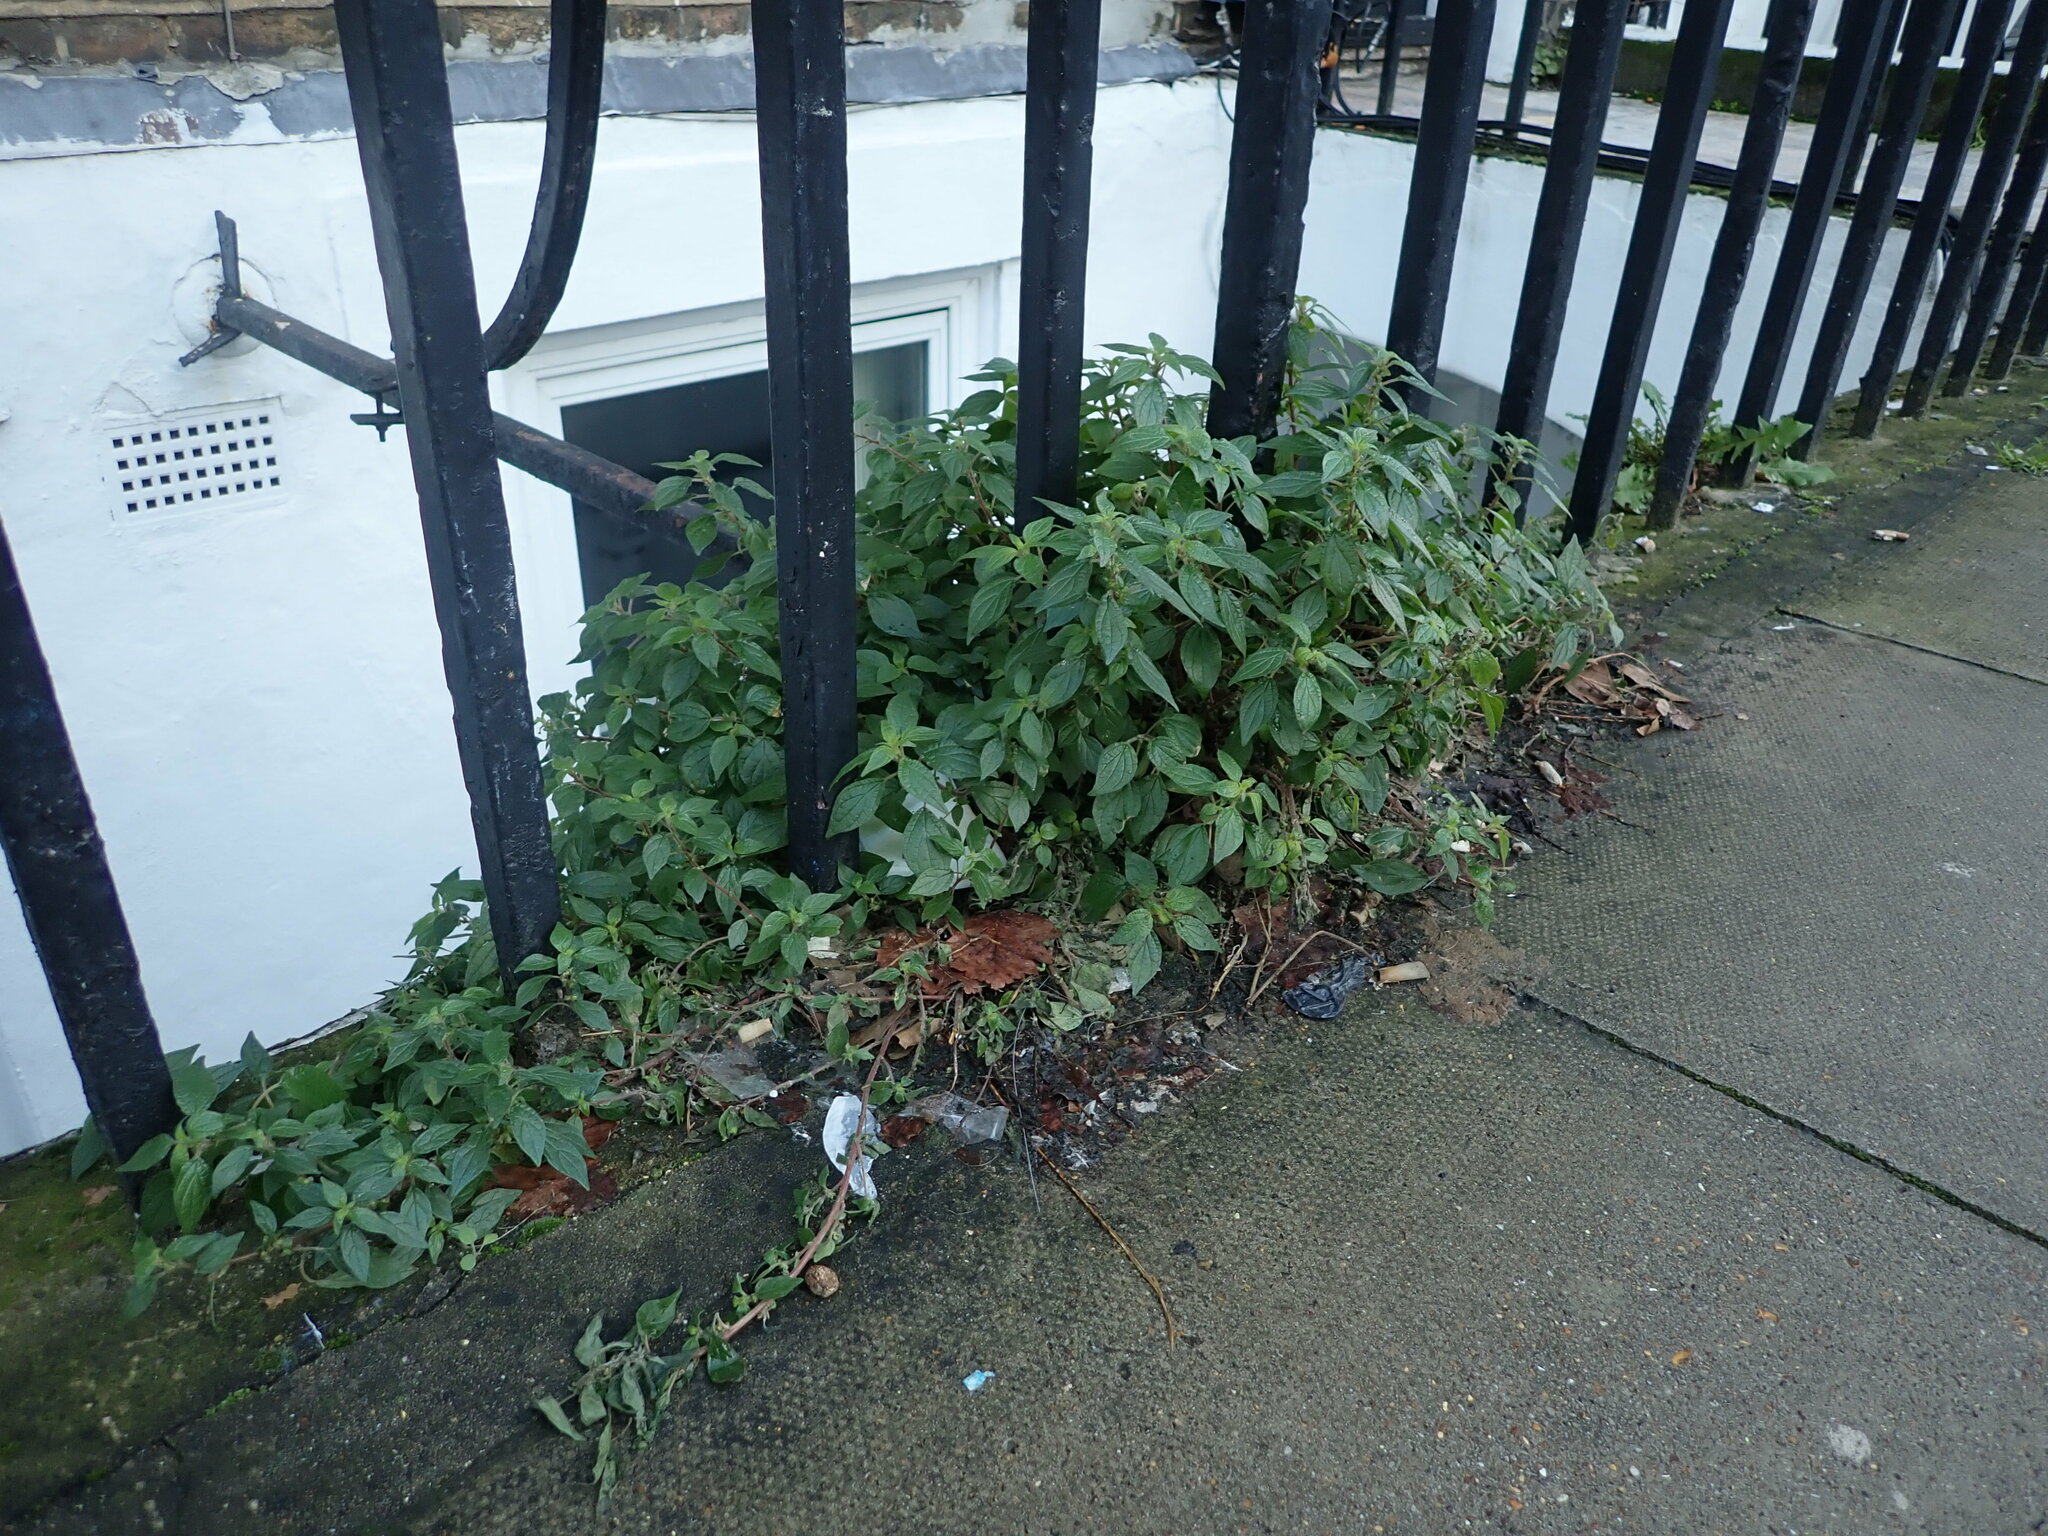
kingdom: Plantae
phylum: Tracheophyta
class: Magnoliopsida
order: Rosales
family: Urticaceae
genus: Parietaria
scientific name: Parietaria judaica
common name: Pellitory-of-the-wall
